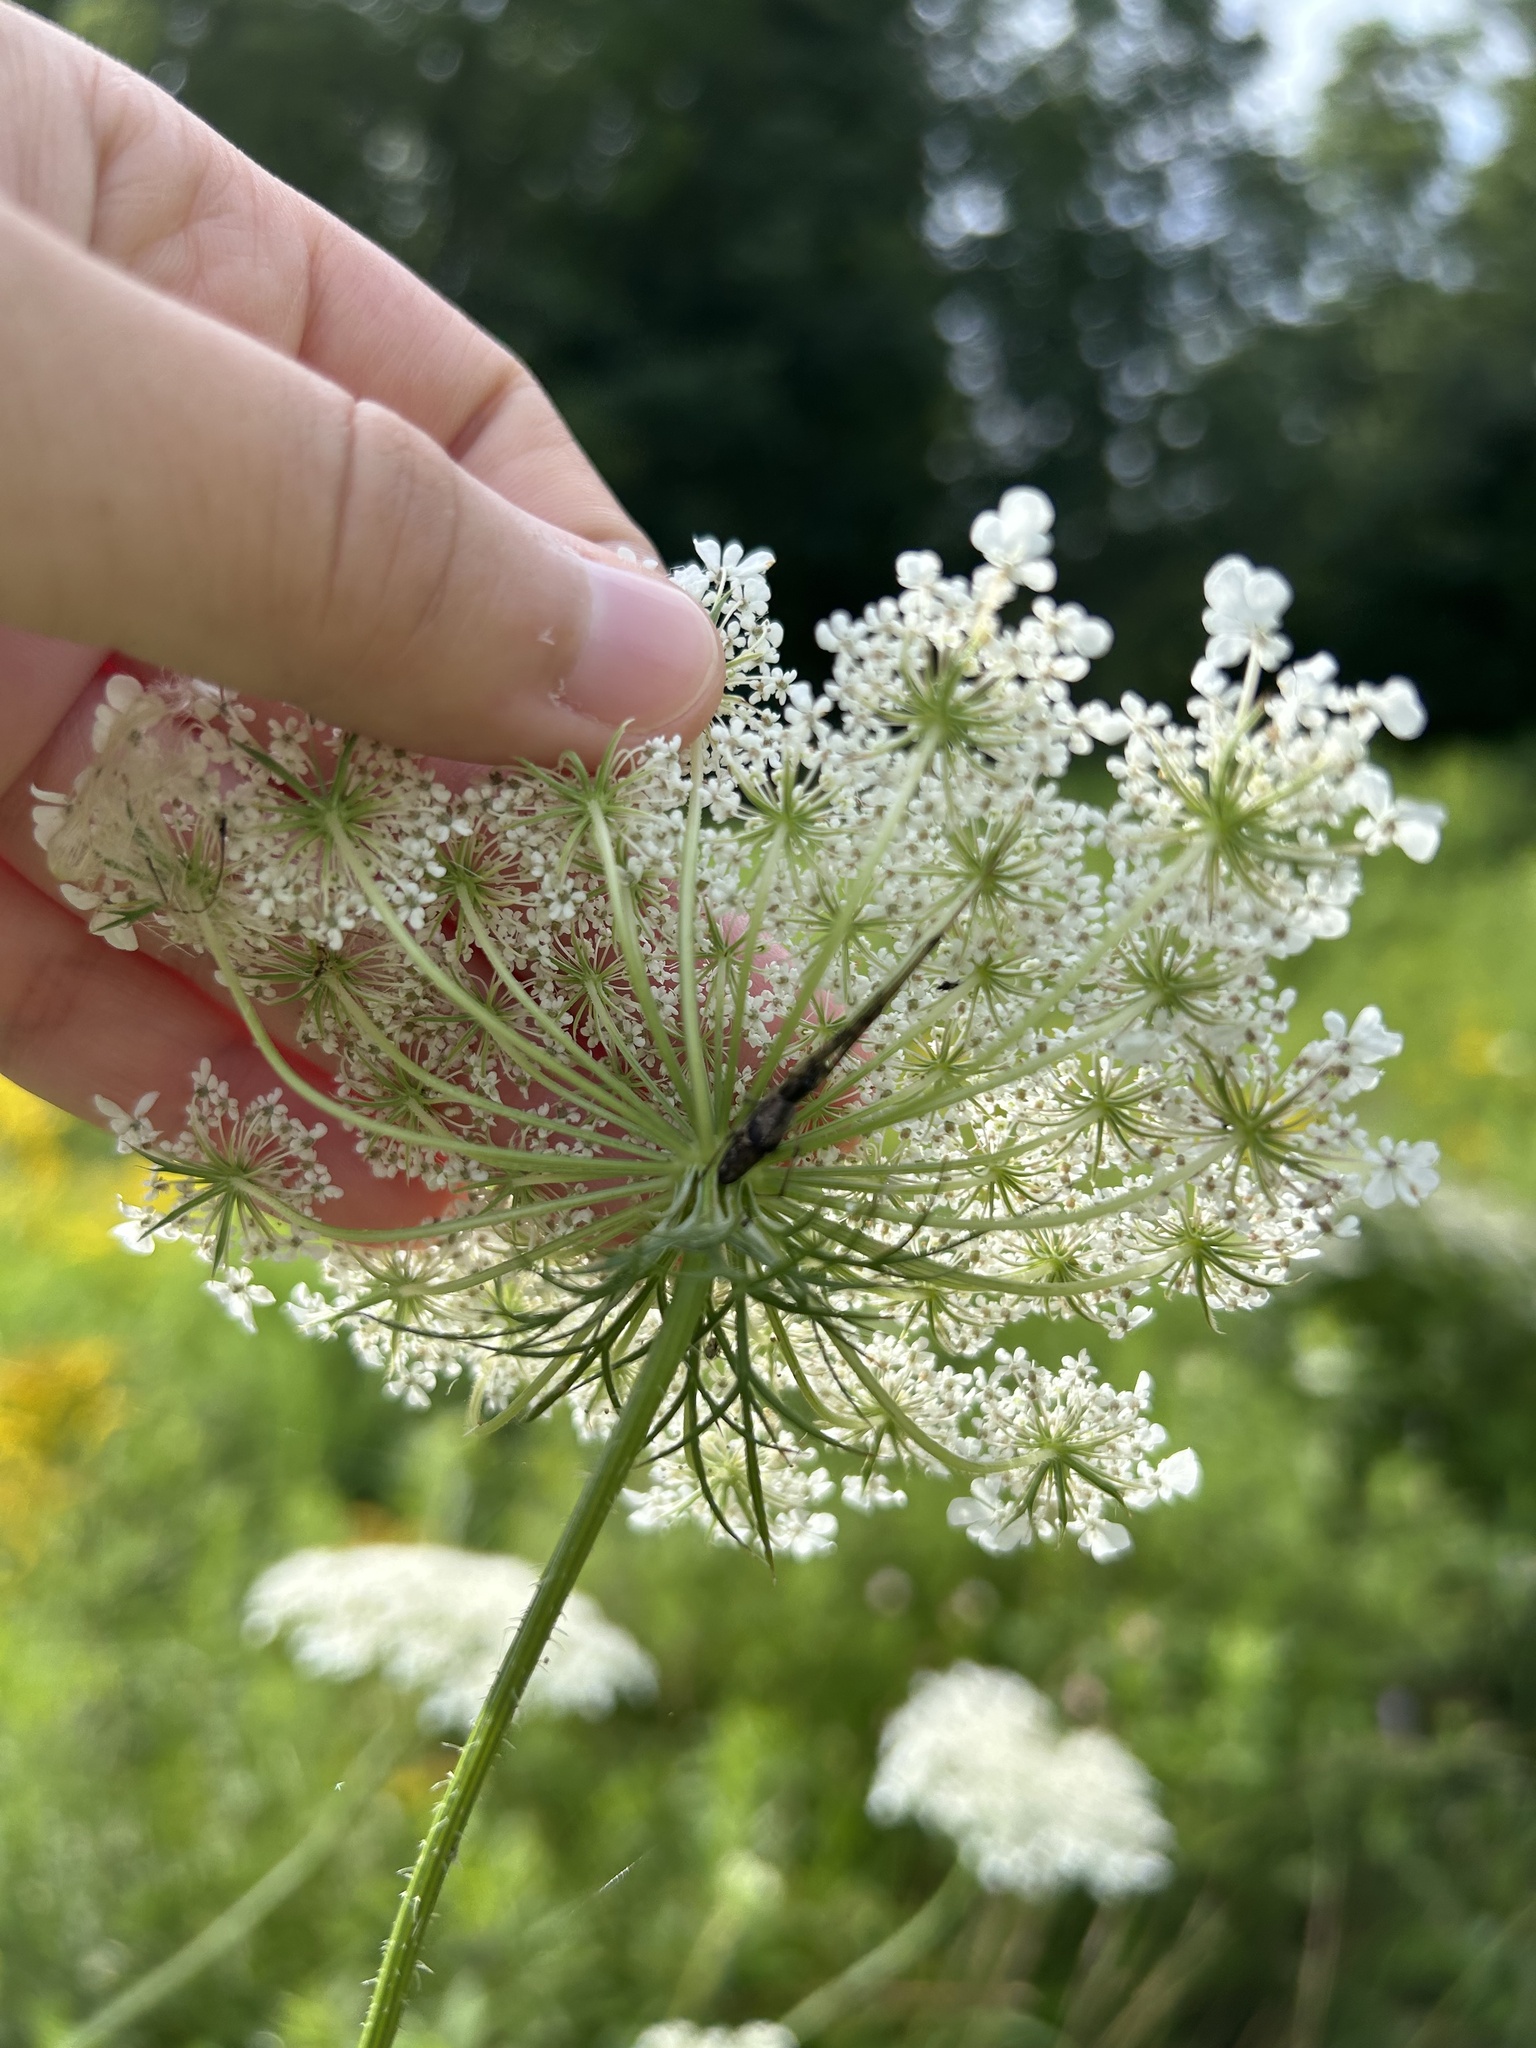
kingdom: Plantae
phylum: Tracheophyta
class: Magnoliopsida
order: Apiales
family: Apiaceae
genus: Daucus
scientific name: Daucus carota
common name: Wild carrot
